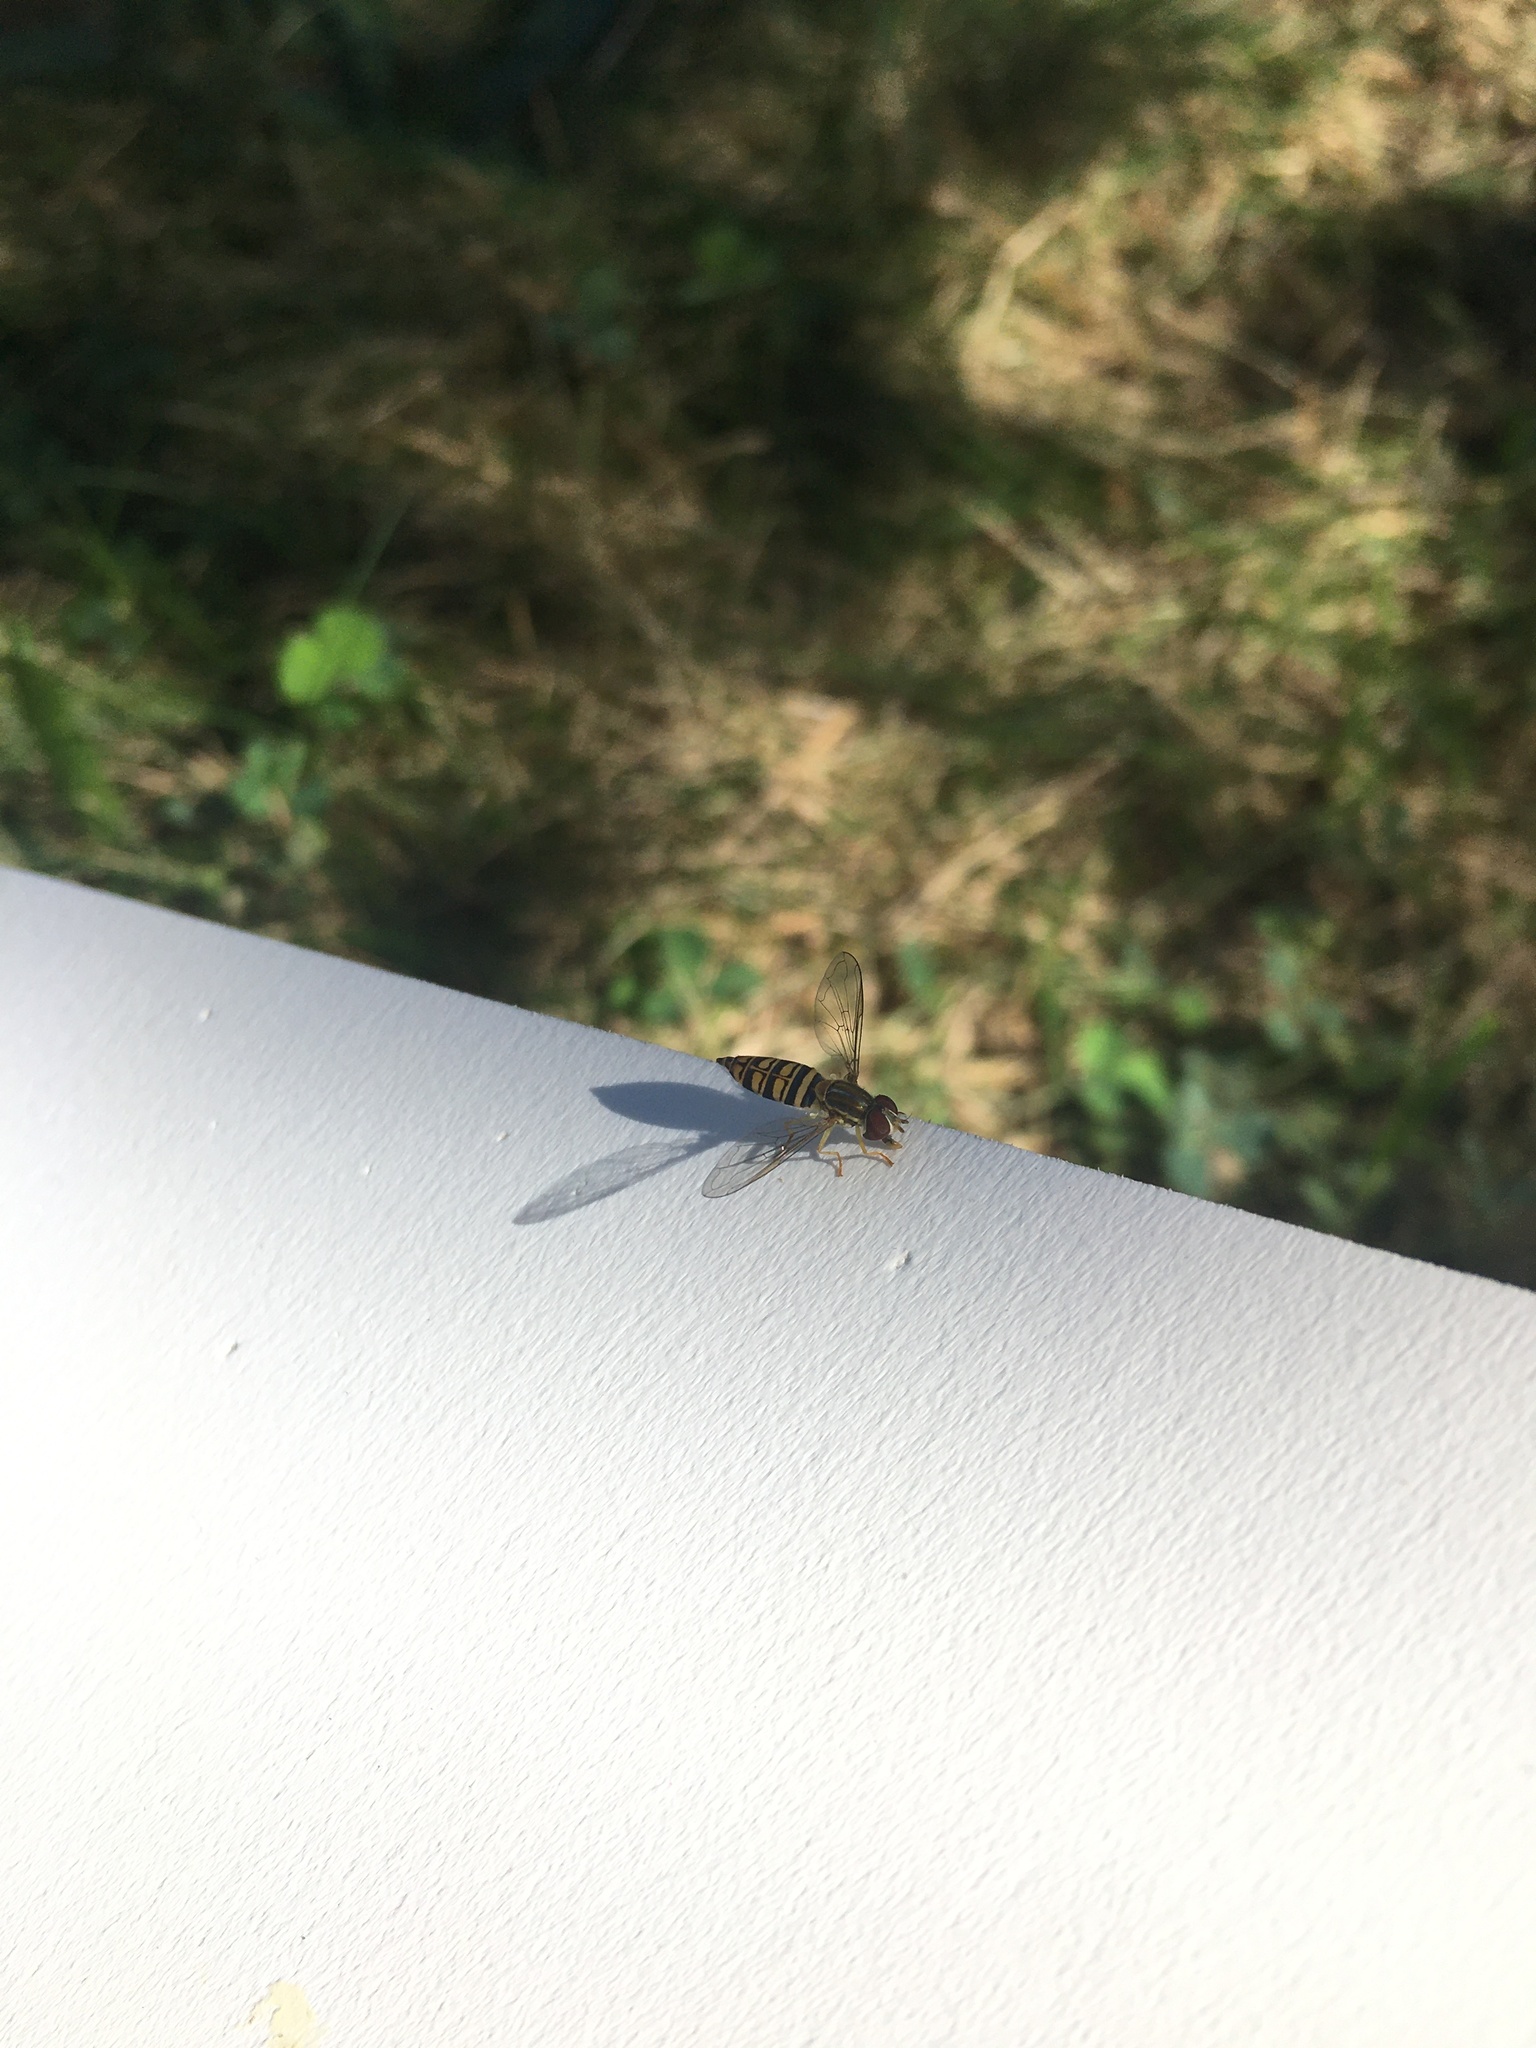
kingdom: Animalia
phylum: Arthropoda
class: Insecta
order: Diptera
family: Syrphidae
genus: Toxomerus
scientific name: Toxomerus politus
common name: Maize calligrapher
